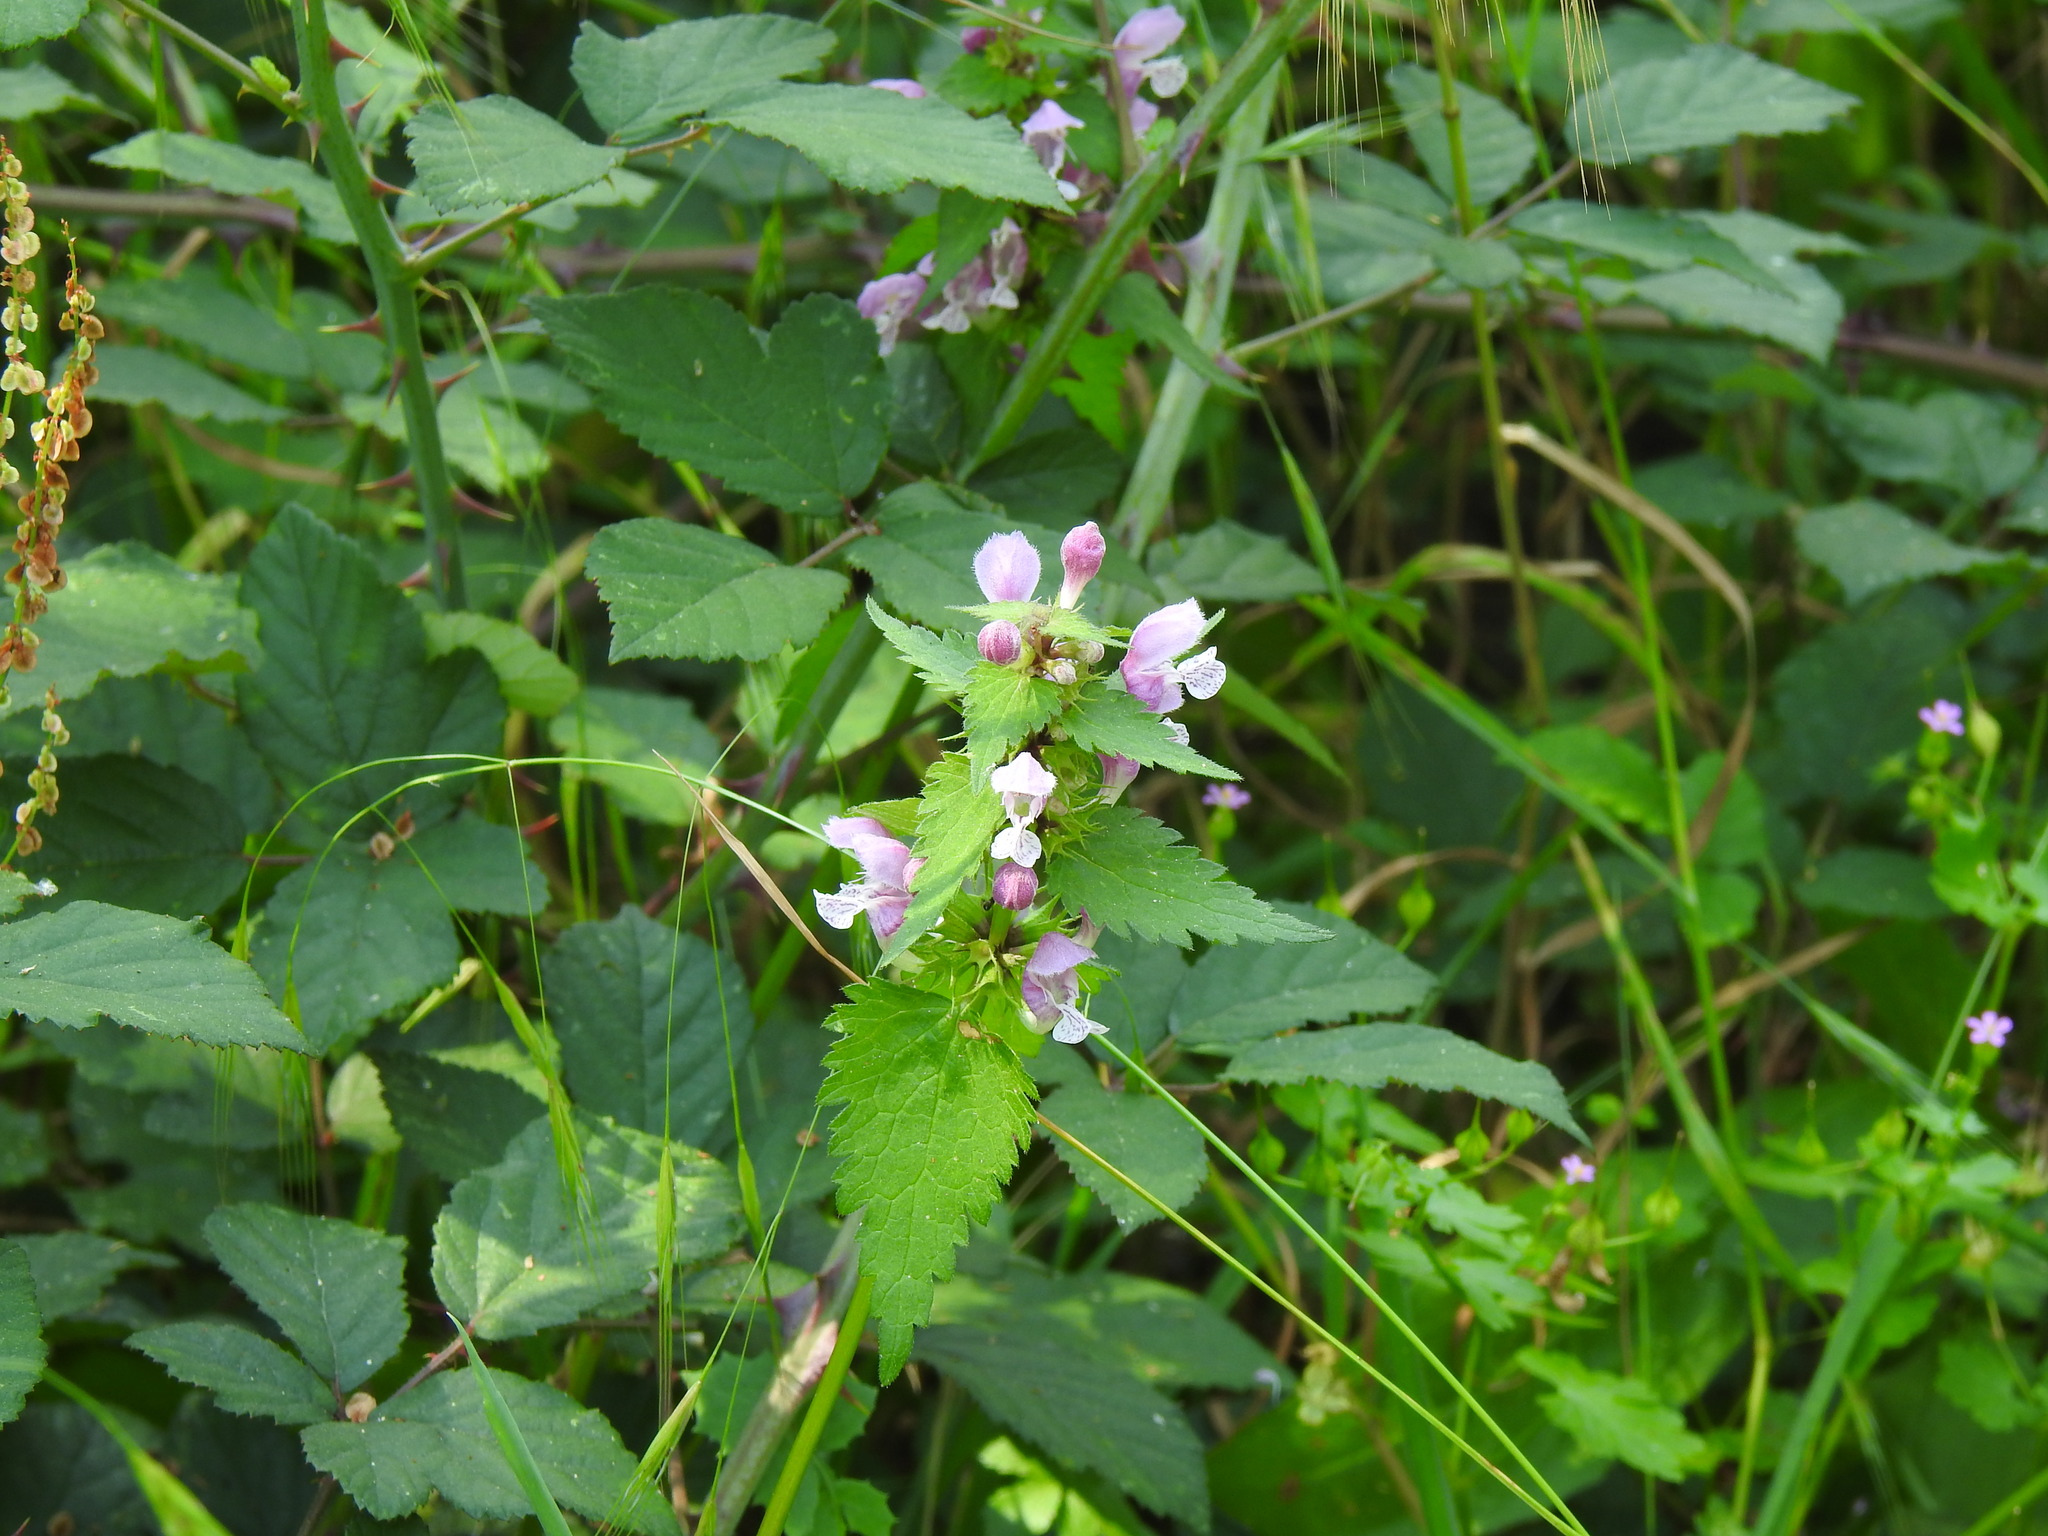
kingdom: Plantae
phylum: Tracheophyta
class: Magnoliopsida
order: Lamiales
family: Lamiaceae
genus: Lamium
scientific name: Lamium maculatum
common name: Spotted dead-nettle
